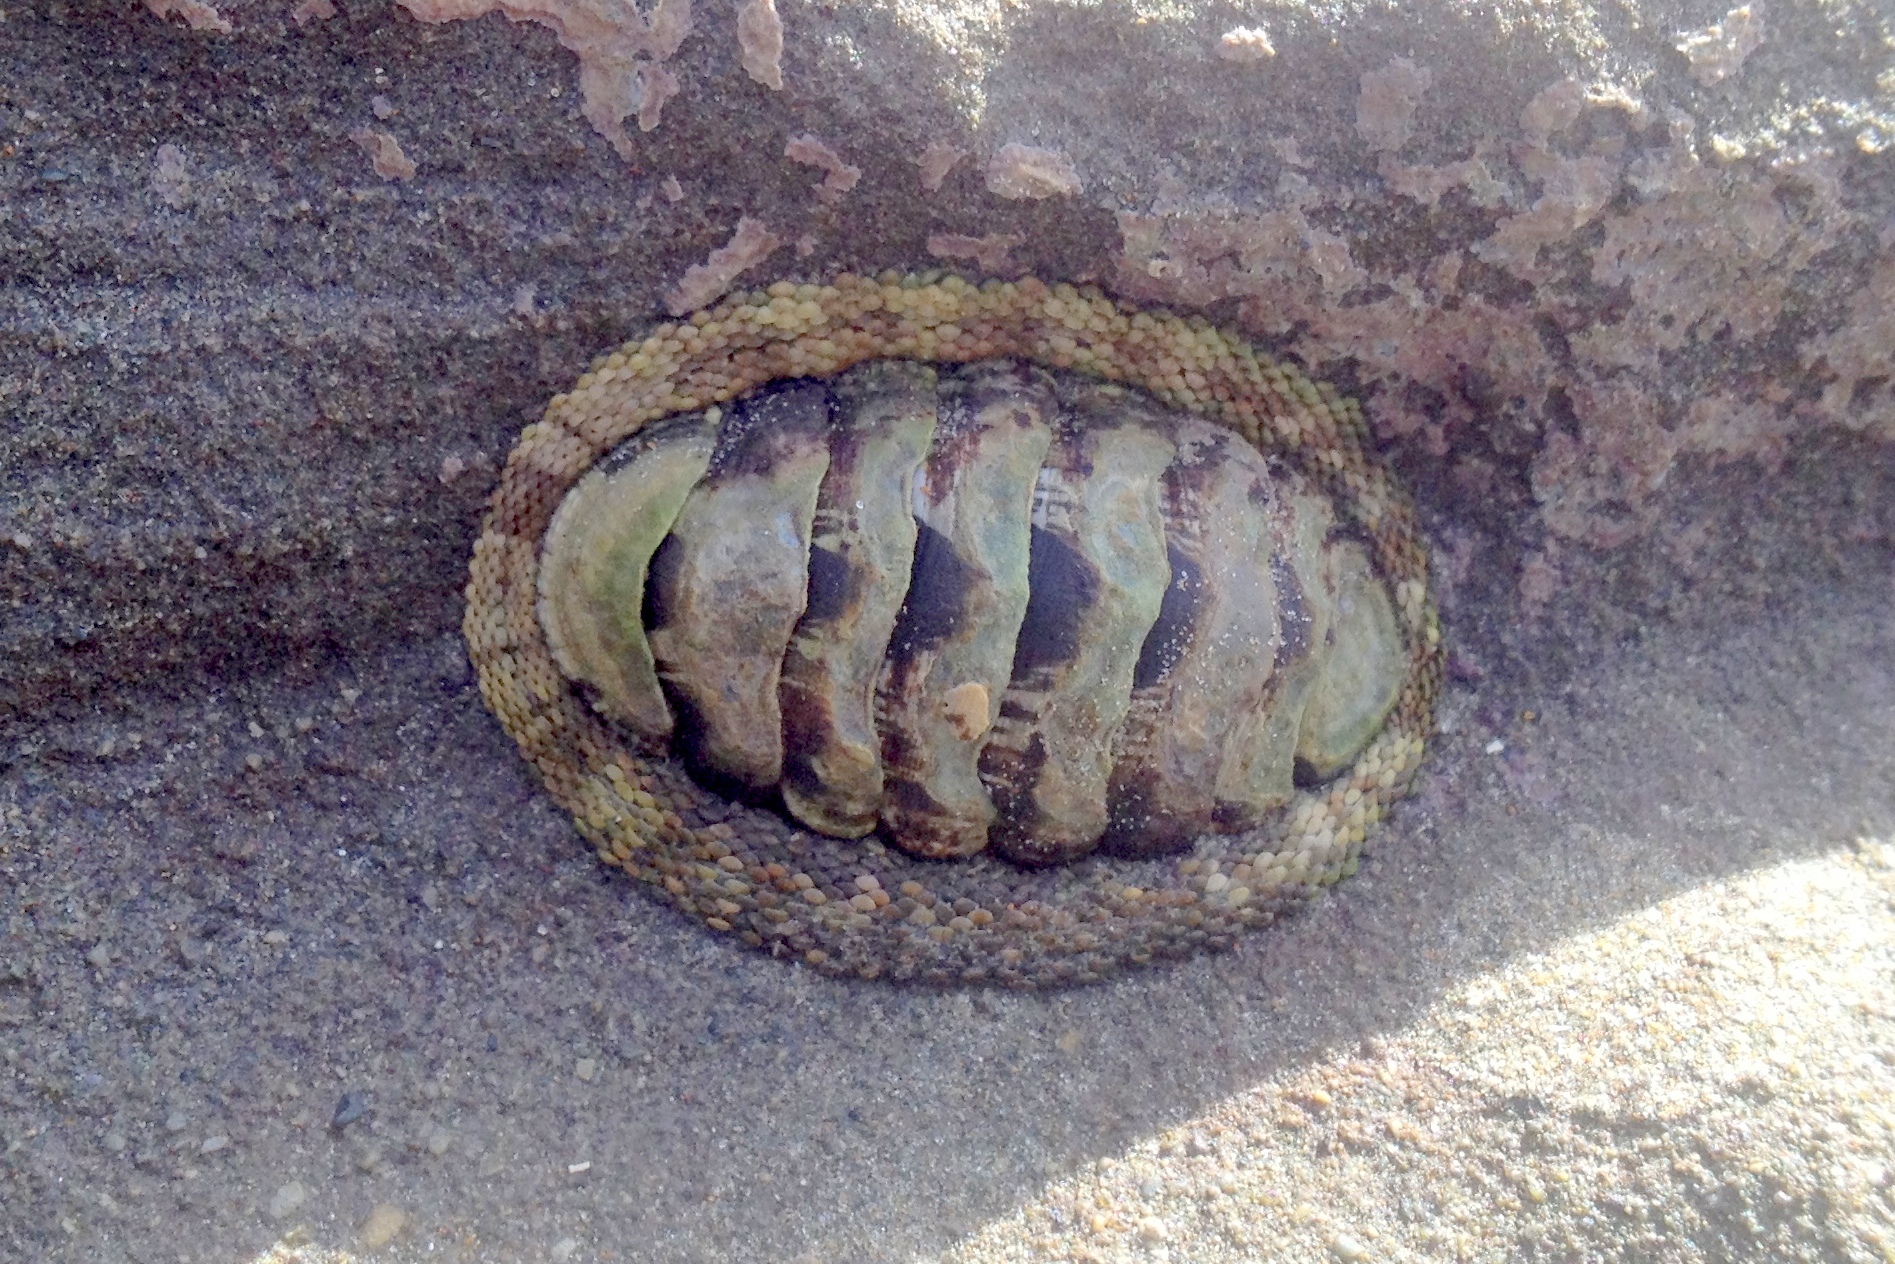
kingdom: Animalia
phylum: Mollusca
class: Polyplacophora
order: Chitonida
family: Chitonidae
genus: Sypharochiton
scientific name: Sypharochiton pelliserpentis
